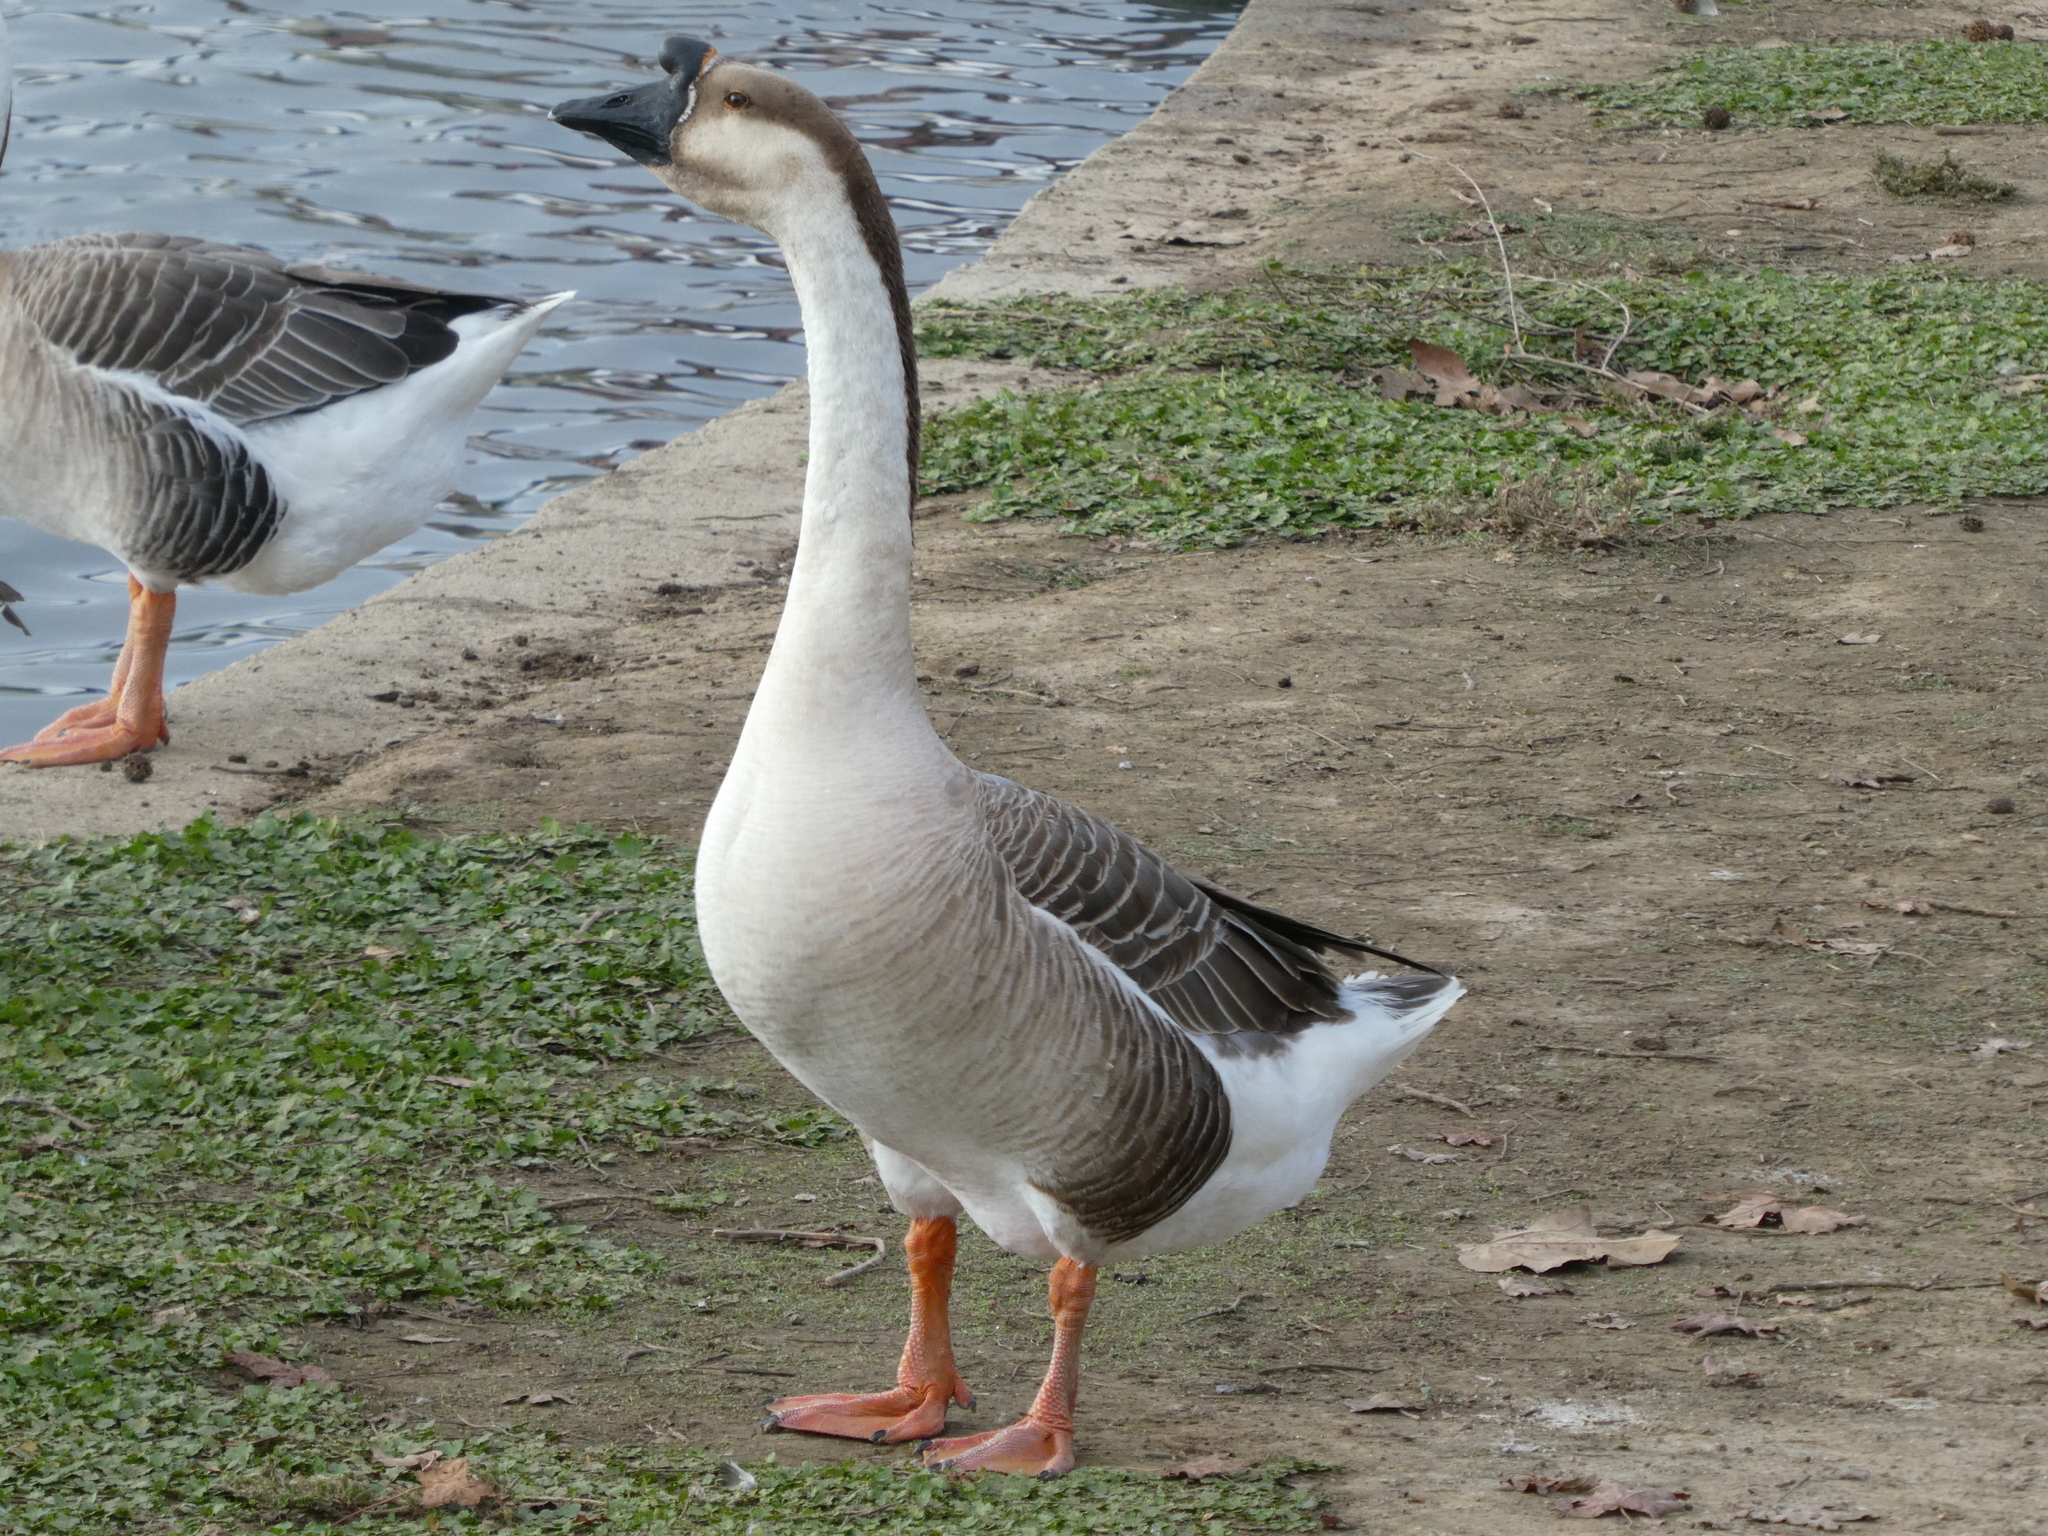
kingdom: Animalia
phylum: Chordata
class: Aves
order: Anseriformes
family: Anatidae
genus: Anser
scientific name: Anser cygnoides
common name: Swan goose
